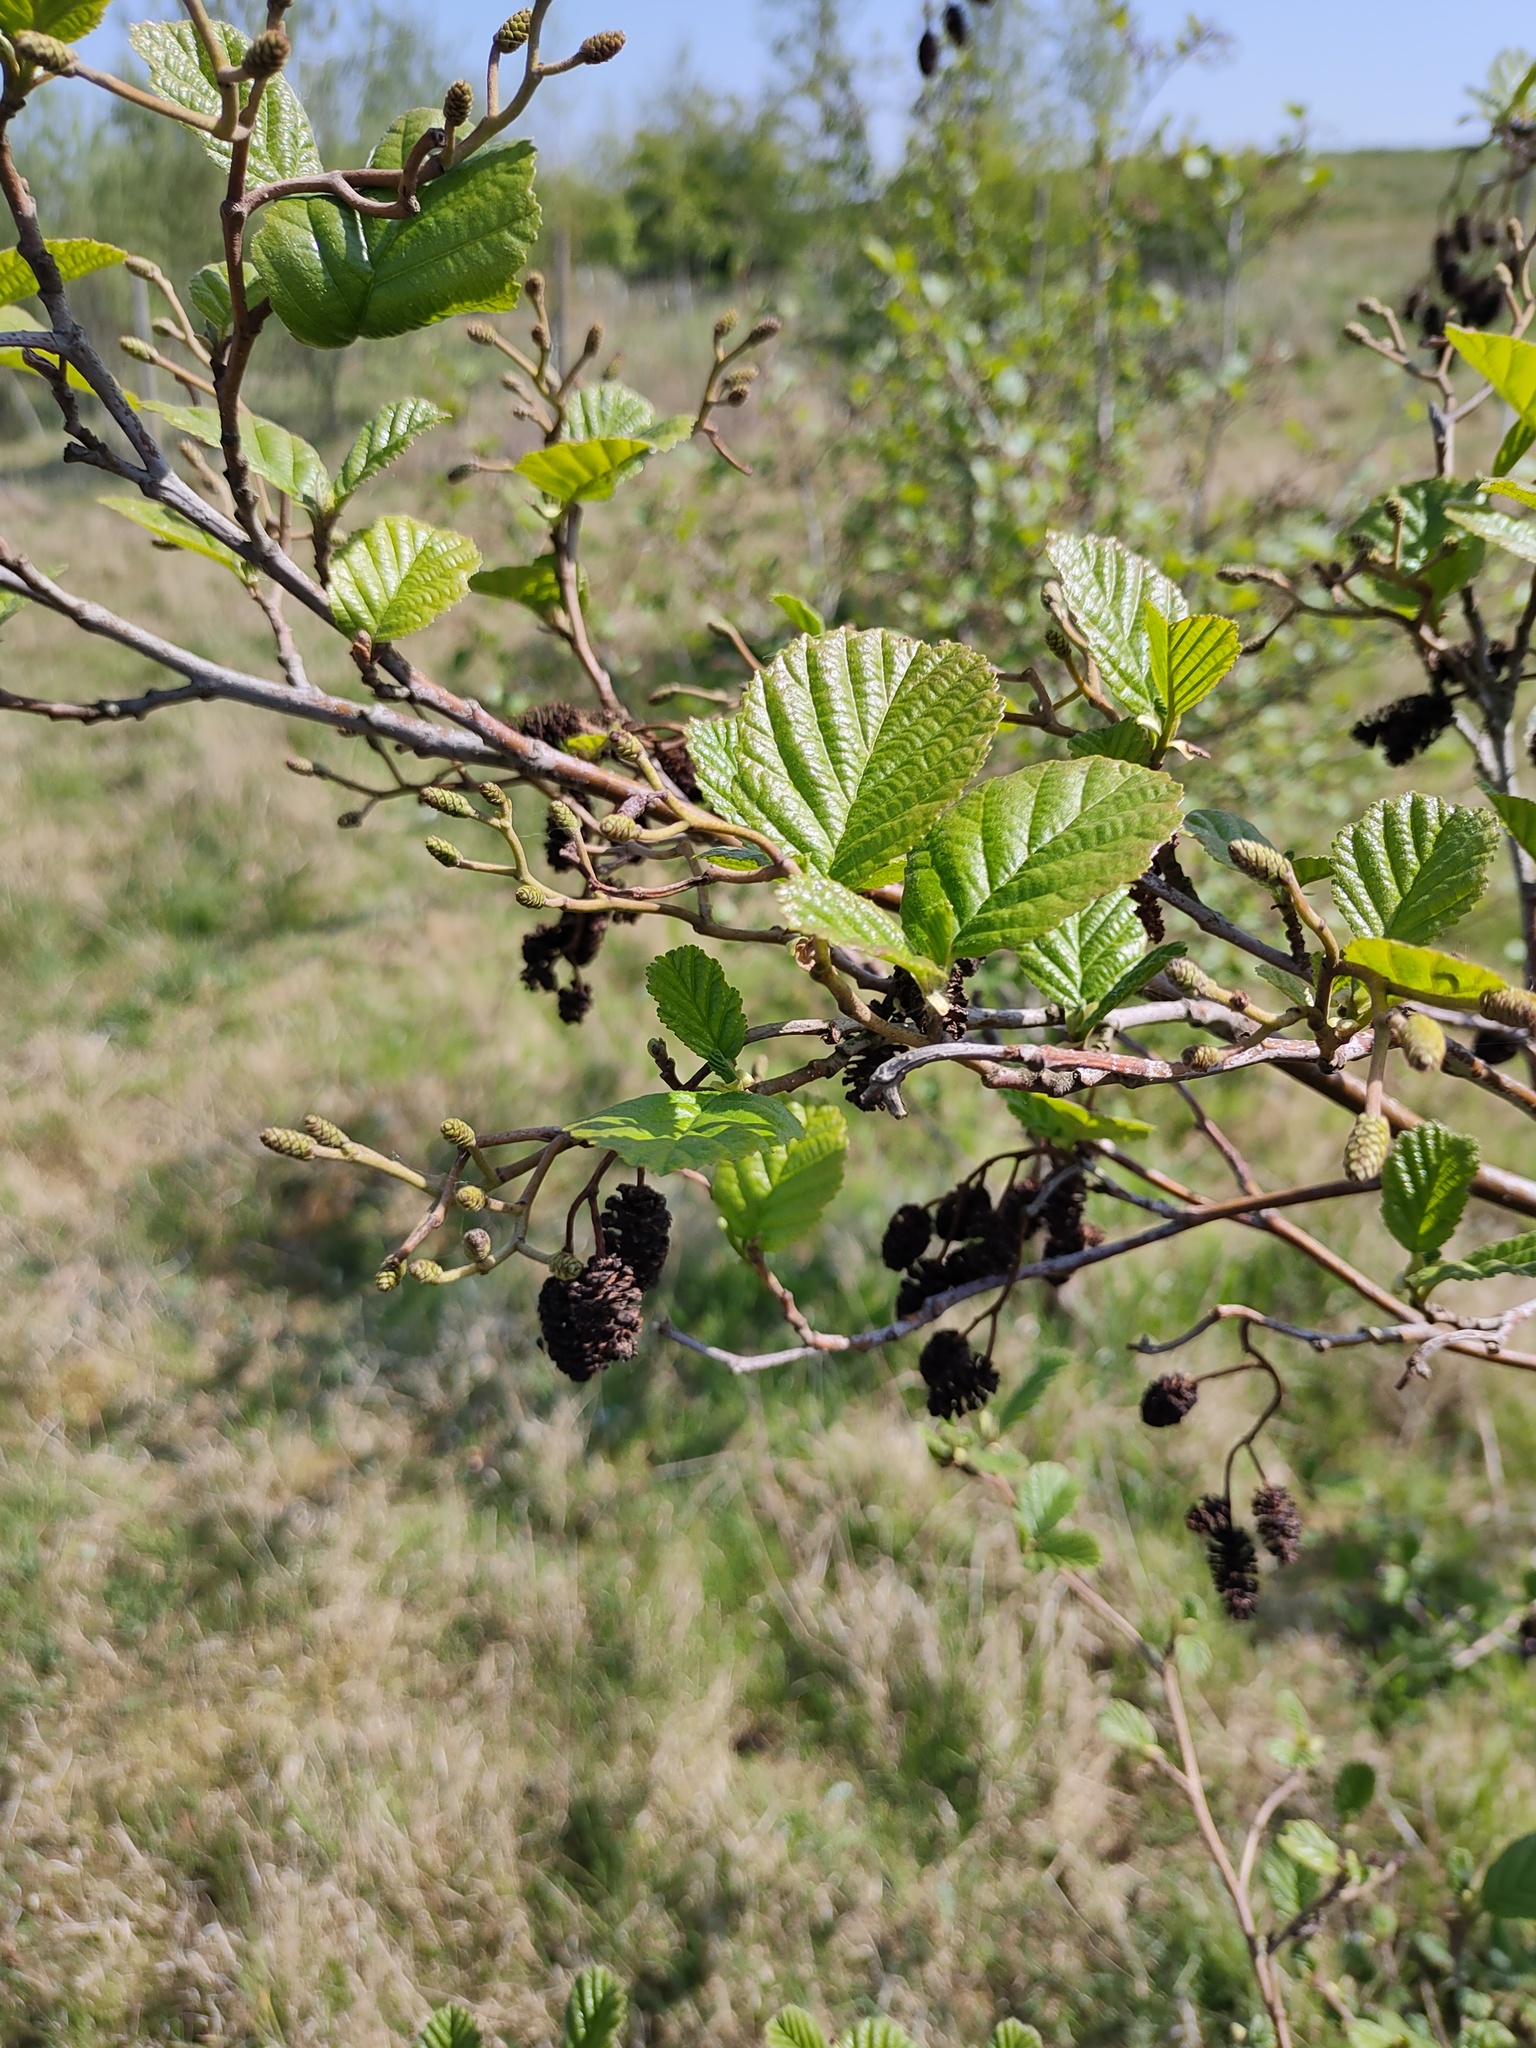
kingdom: Plantae
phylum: Tracheophyta
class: Magnoliopsida
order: Fagales
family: Betulaceae
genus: Alnus
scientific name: Alnus glutinosa
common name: Black alder
